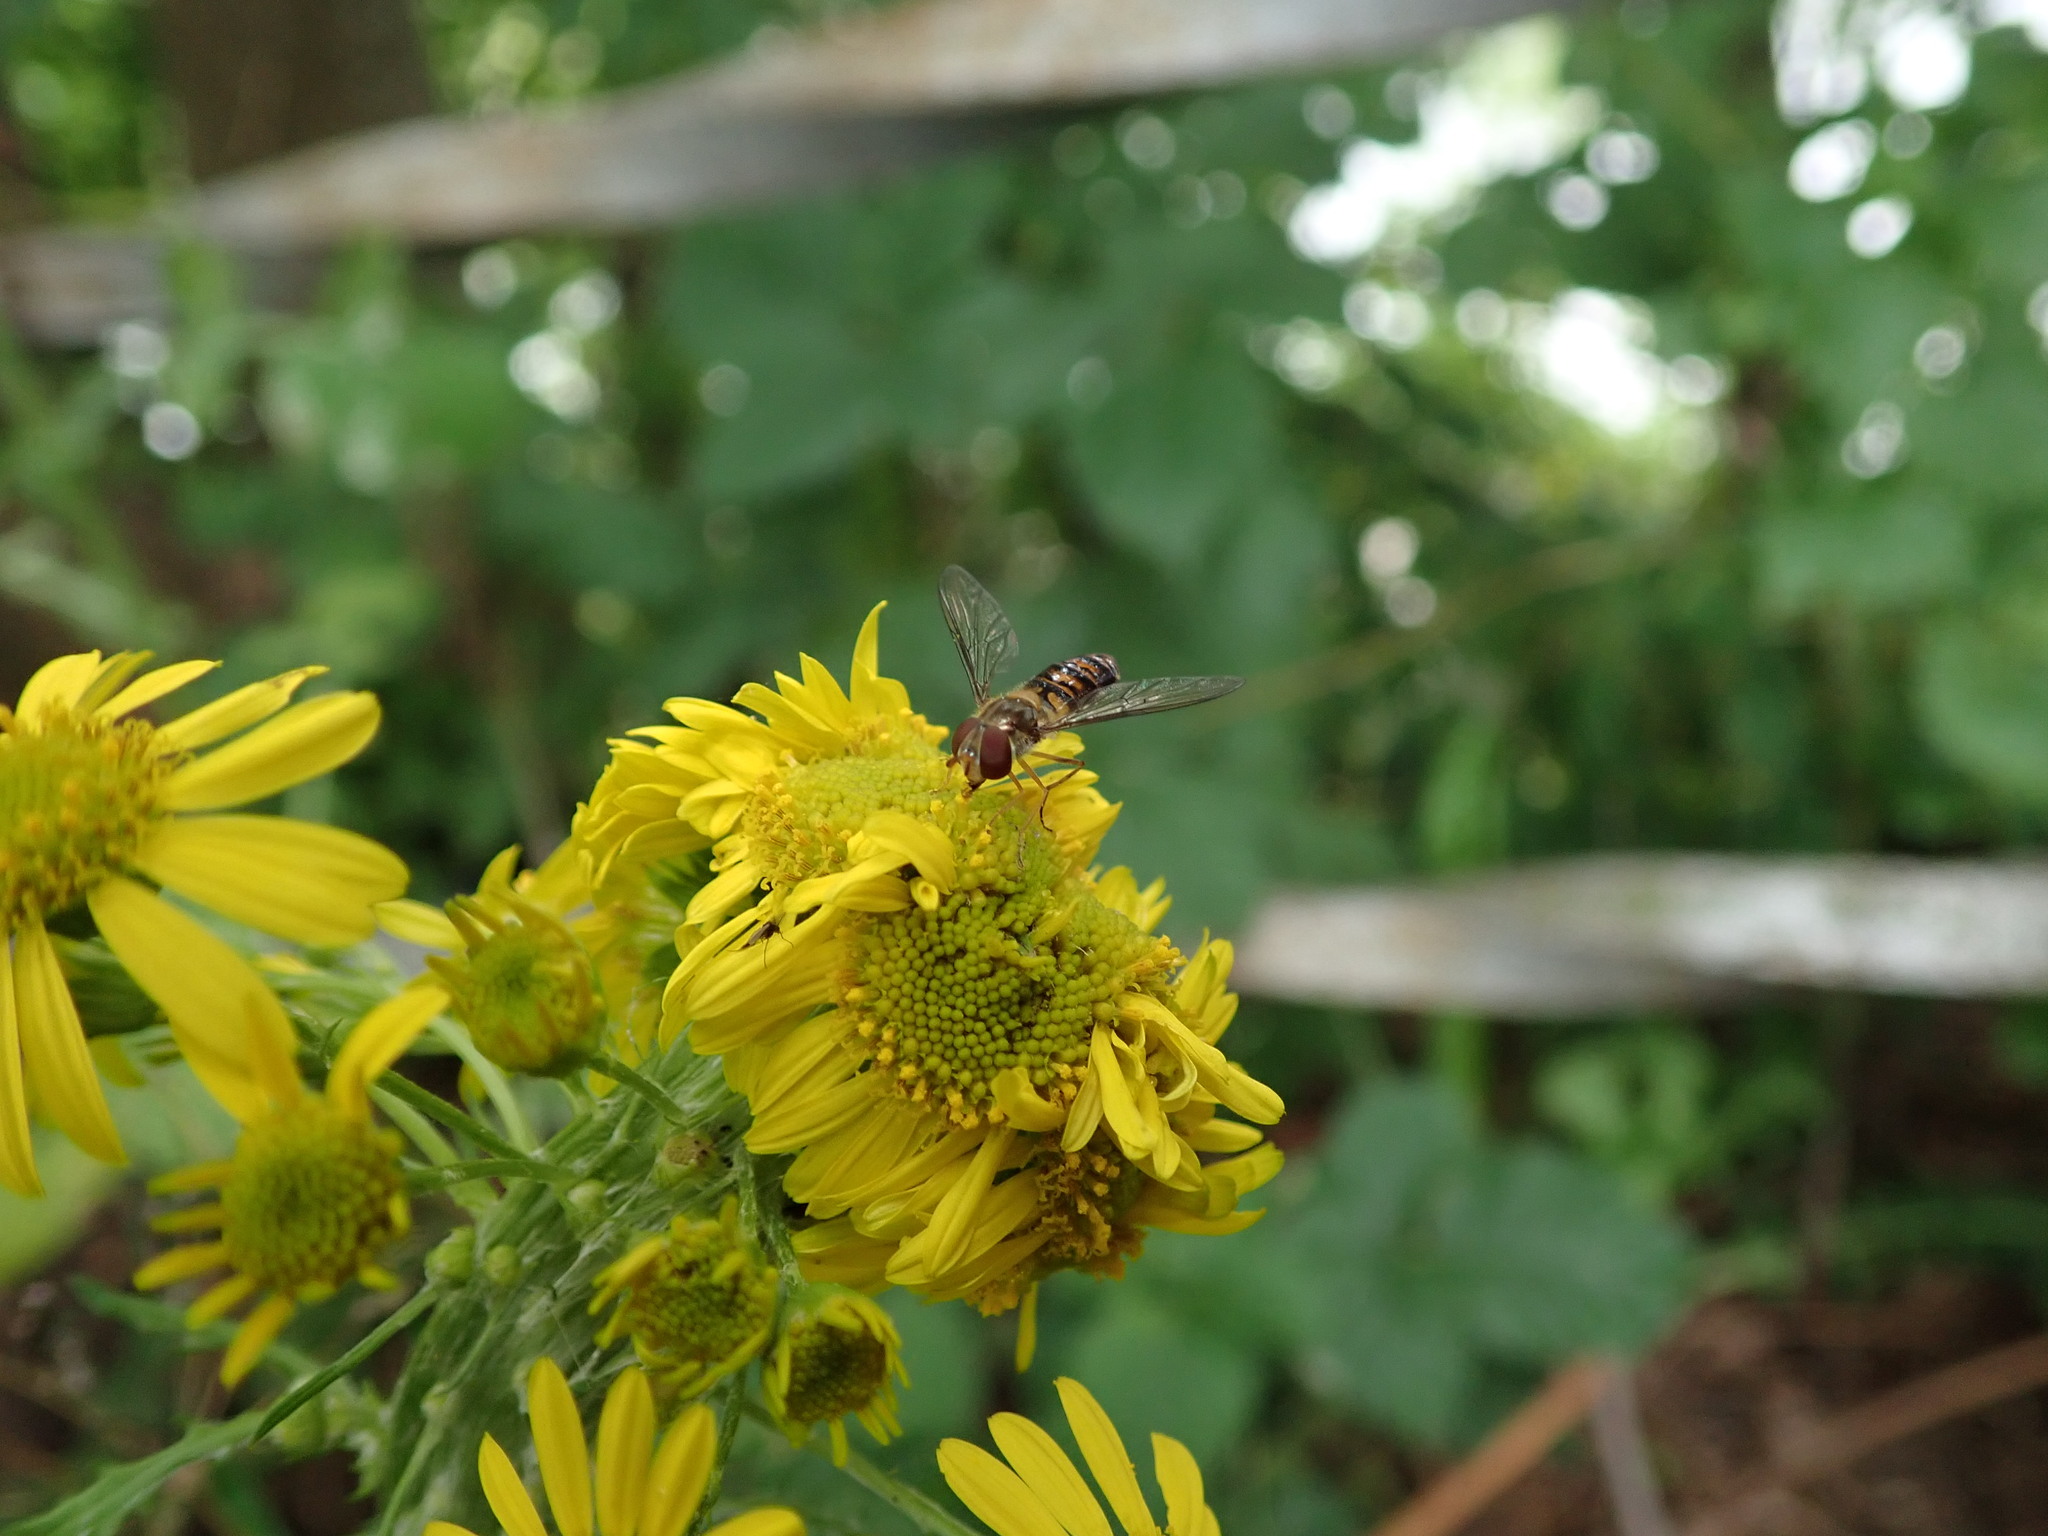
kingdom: Animalia
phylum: Arthropoda
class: Insecta
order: Diptera
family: Syrphidae
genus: Episyrphus
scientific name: Episyrphus balteatus
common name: Marmalade hoverfly
